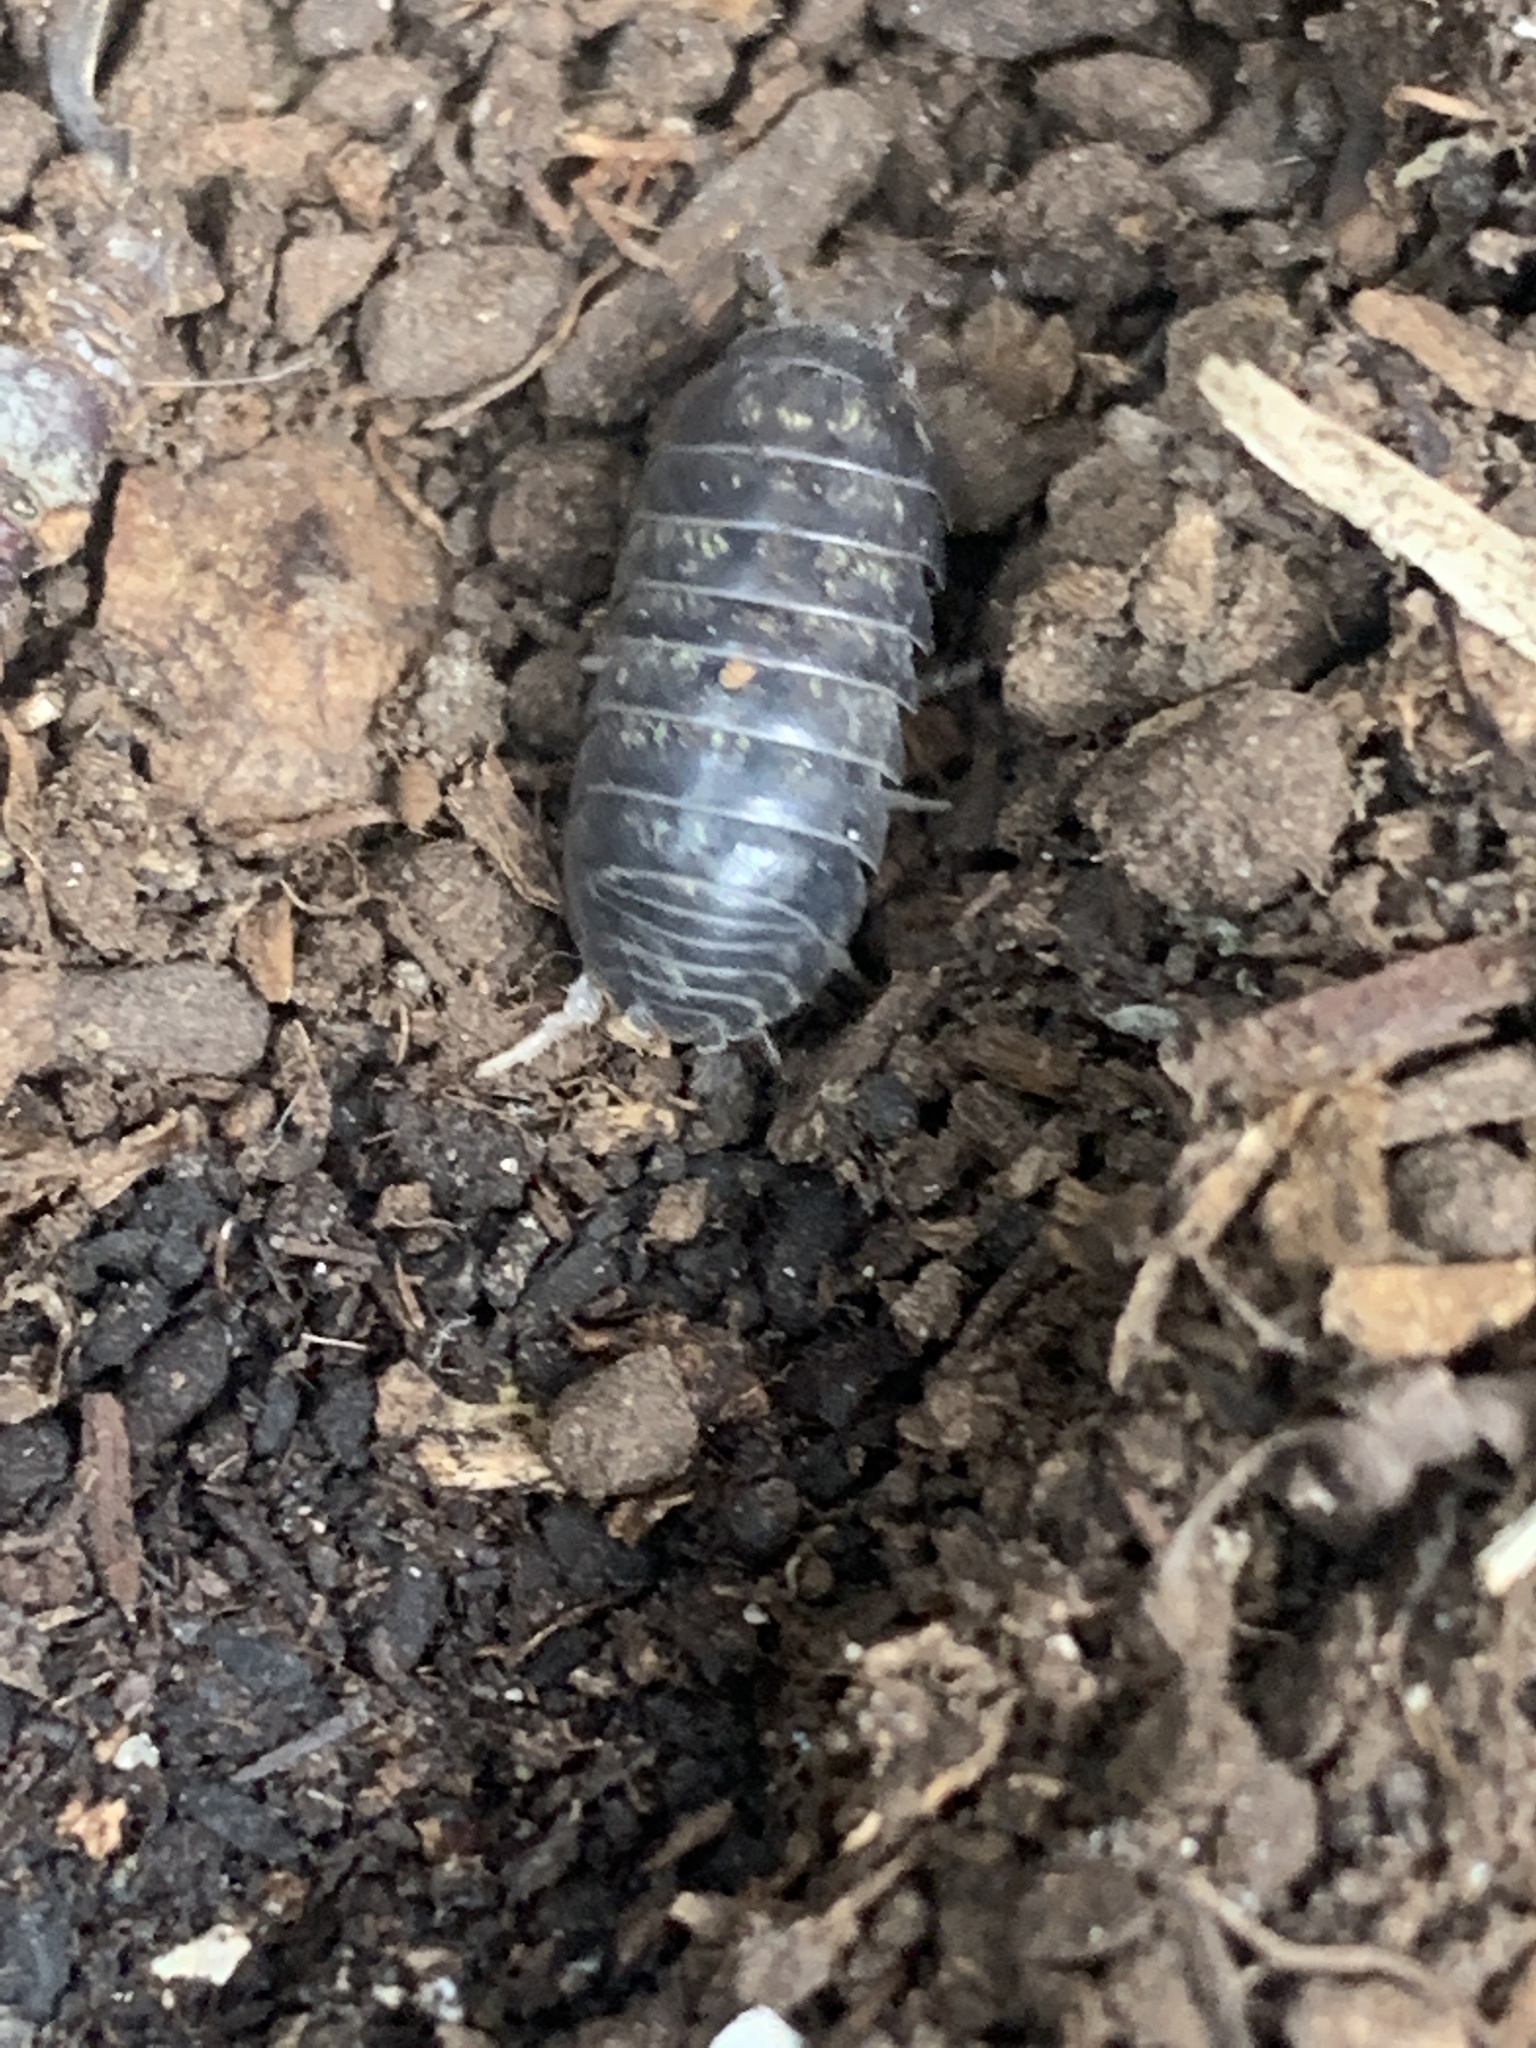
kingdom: Animalia
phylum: Arthropoda
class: Malacostraca
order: Isopoda
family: Armadillidiidae
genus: Armadillidium
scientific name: Armadillidium vulgare
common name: Common pill woodlouse
